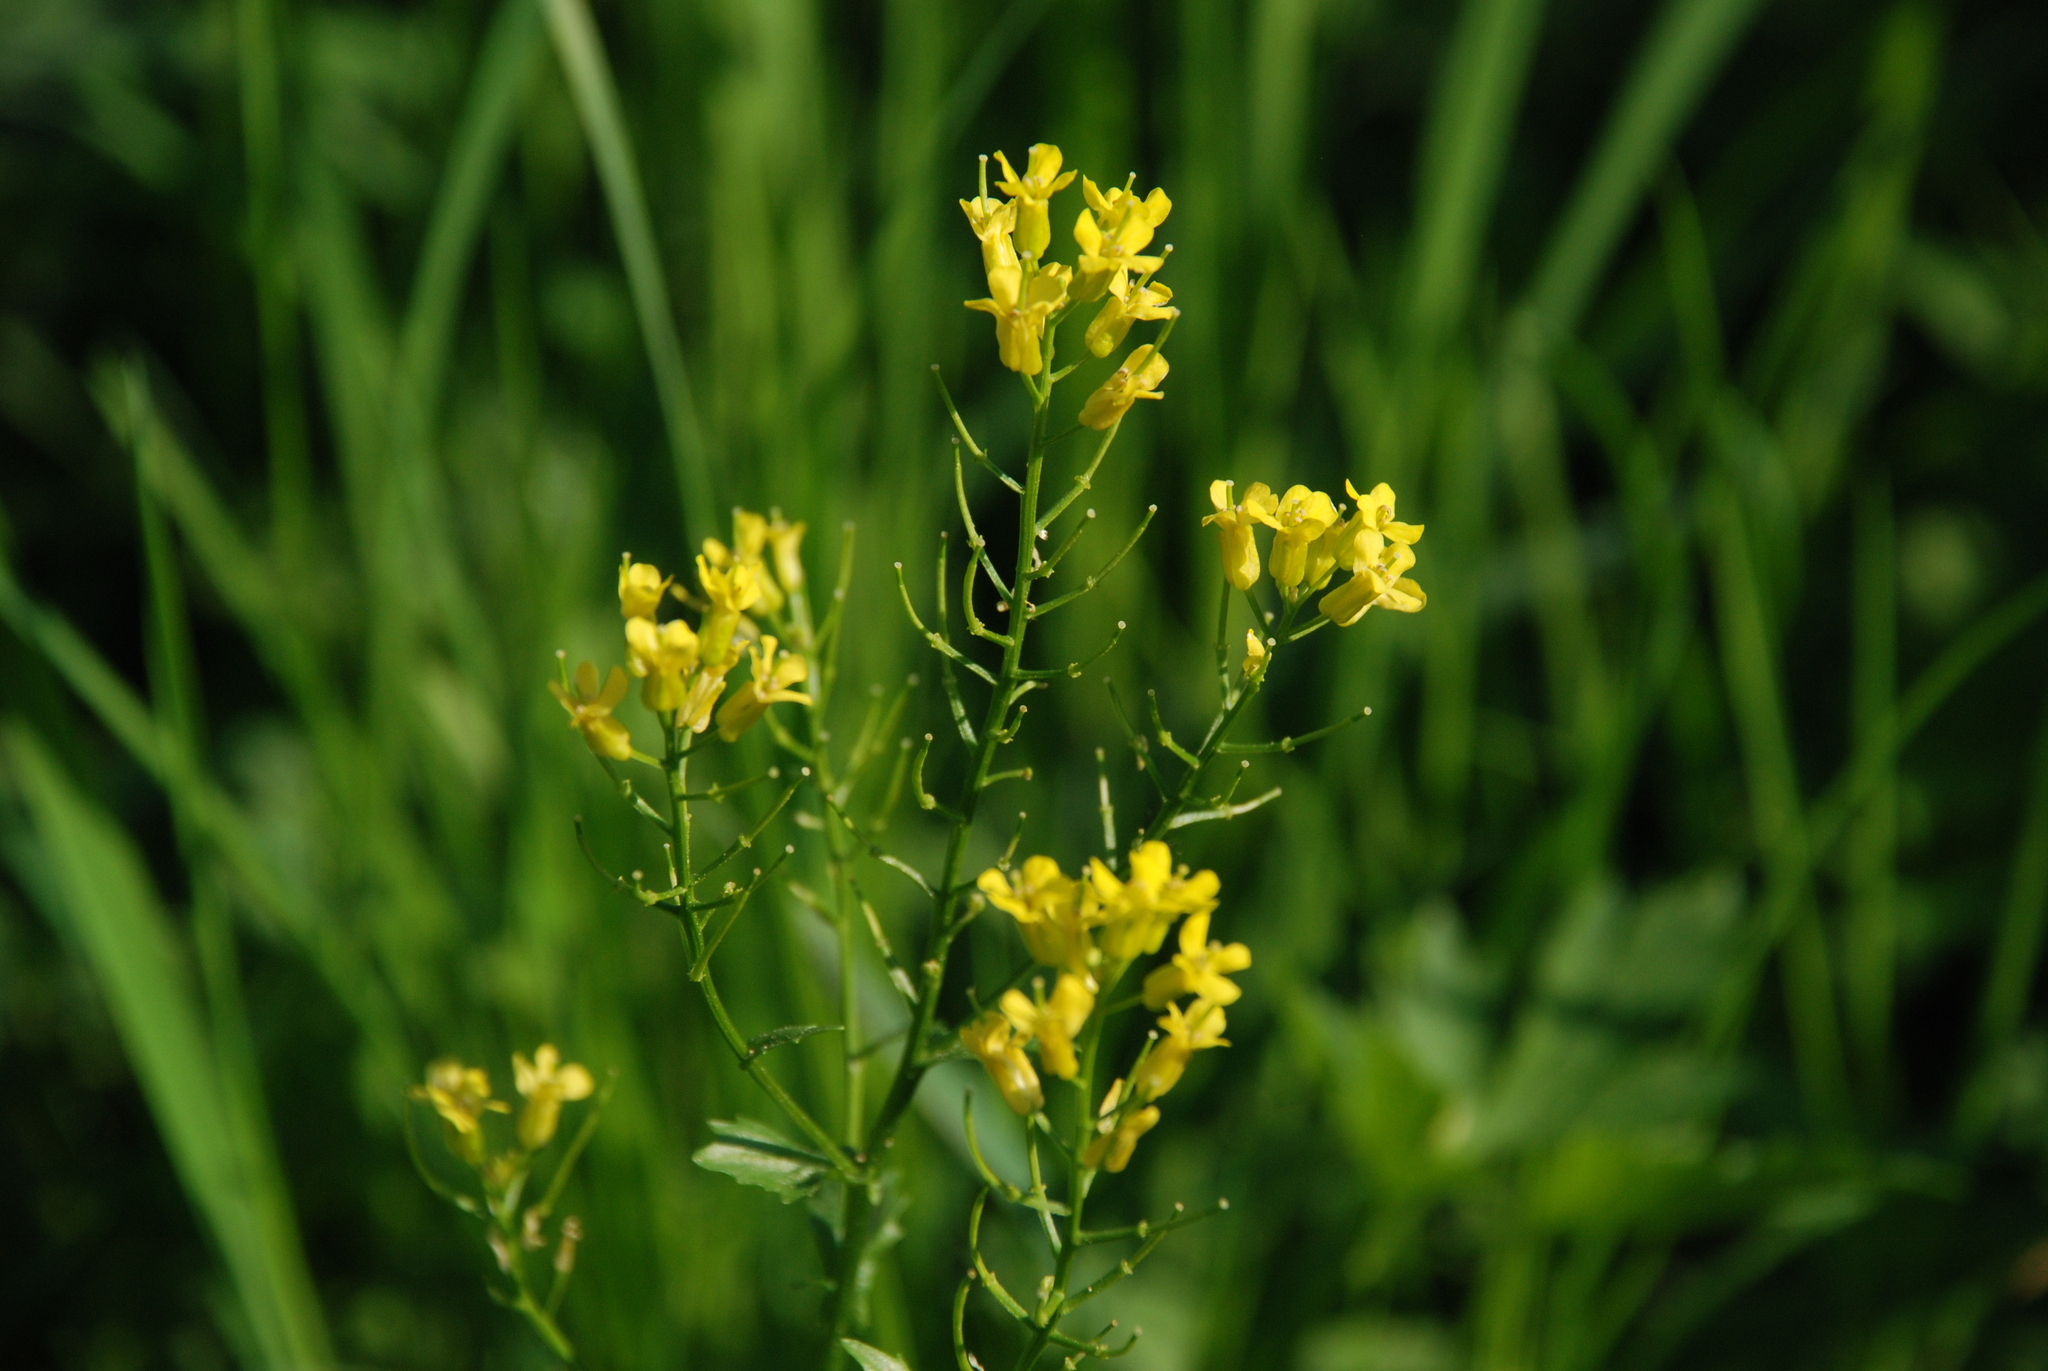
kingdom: Plantae
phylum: Tracheophyta
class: Magnoliopsida
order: Brassicales
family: Brassicaceae
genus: Barbarea
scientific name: Barbarea vulgaris
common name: Cressy-greens
